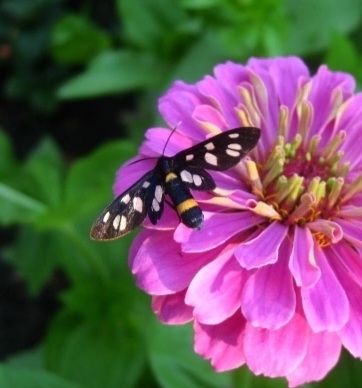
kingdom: Animalia
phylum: Arthropoda
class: Insecta
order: Lepidoptera
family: Erebidae
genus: Amata
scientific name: Amata nigricornis
